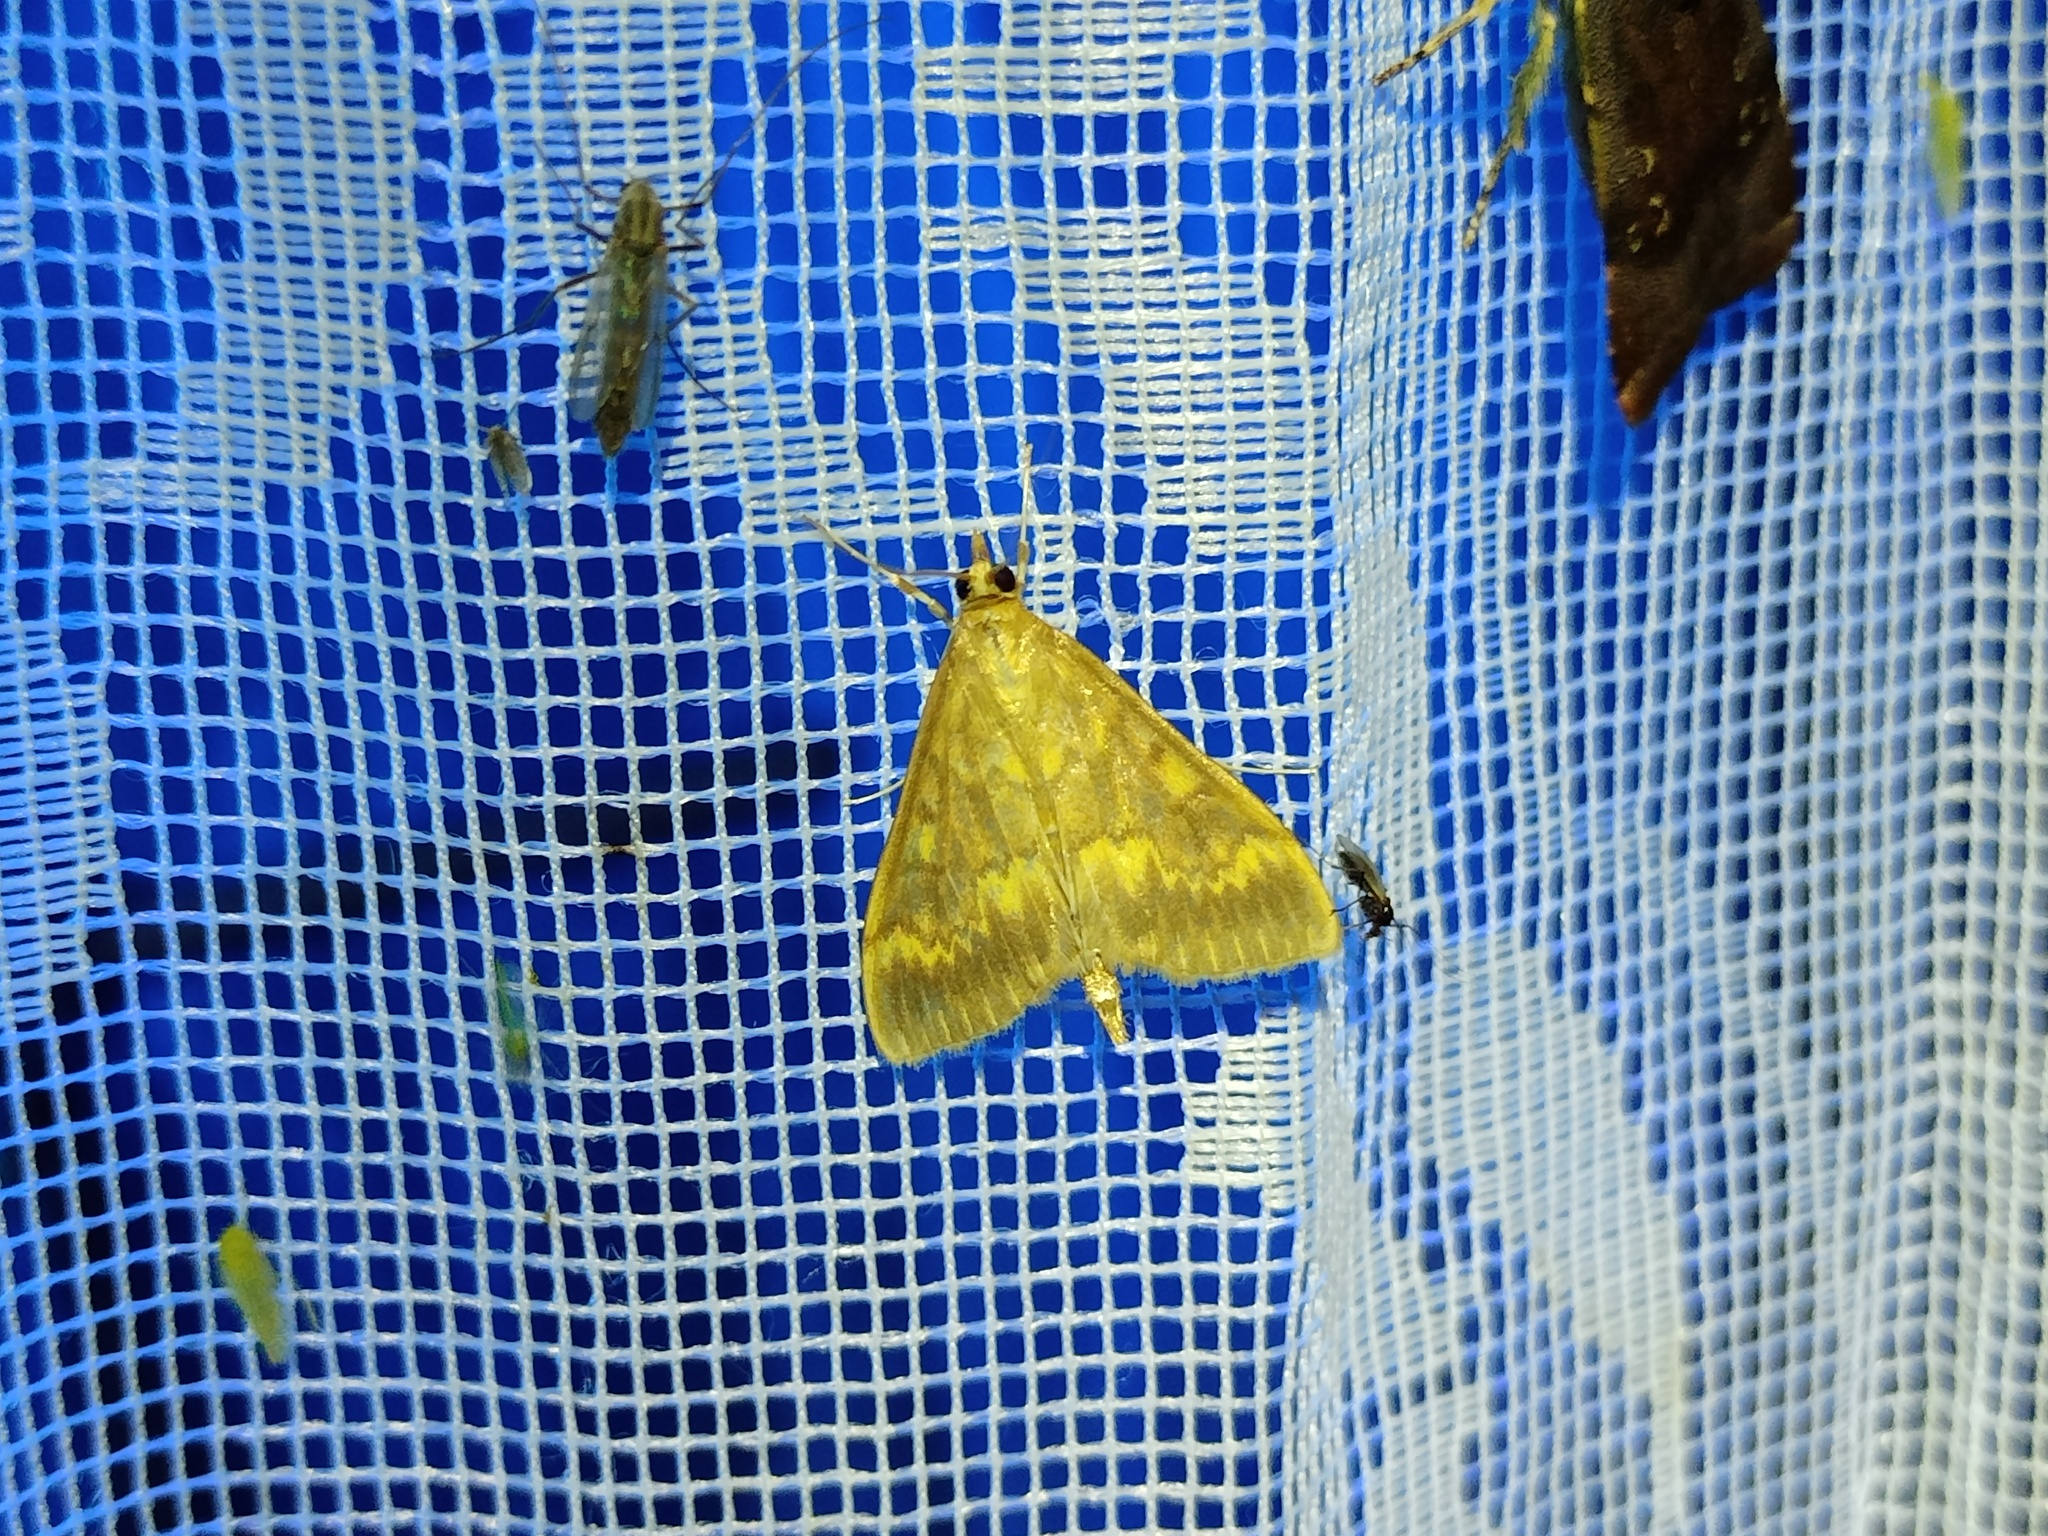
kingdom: Animalia
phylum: Arthropoda
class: Insecta
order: Lepidoptera
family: Crambidae
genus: Ostrinia
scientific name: Ostrinia nubilalis
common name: European corn borer
